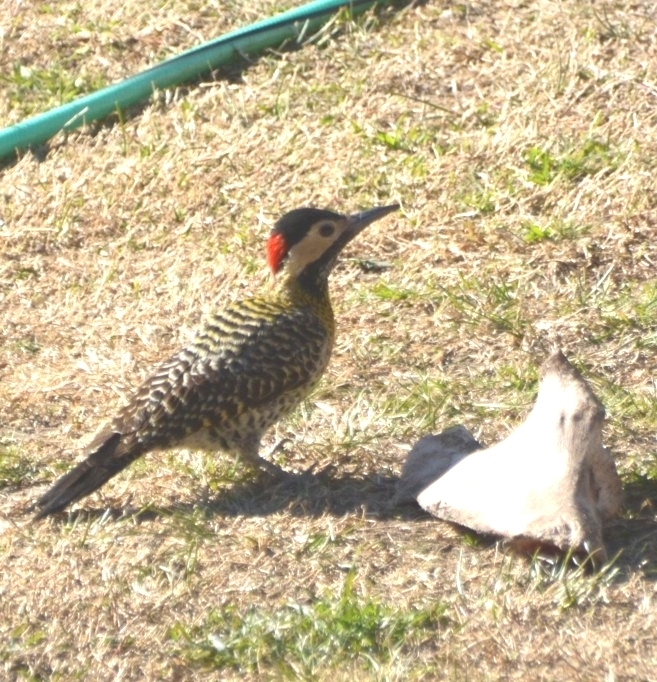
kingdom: Animalia
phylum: Chordata
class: Aves
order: Piciformes
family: Picidae
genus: Colaptes
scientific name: Colaptes melanochloros
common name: Green-barred woodpecker
